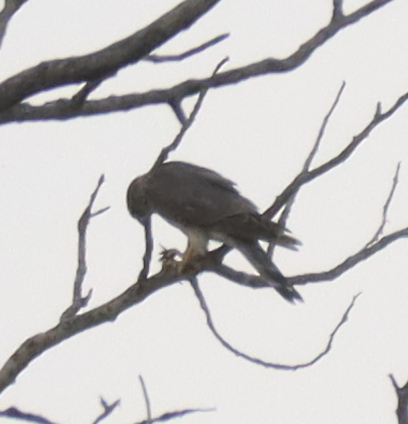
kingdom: Animalia
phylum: Chordata
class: Aves
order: Falconiformes
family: Falconidae
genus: Falco
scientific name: Falco columbarius
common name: Merlin
